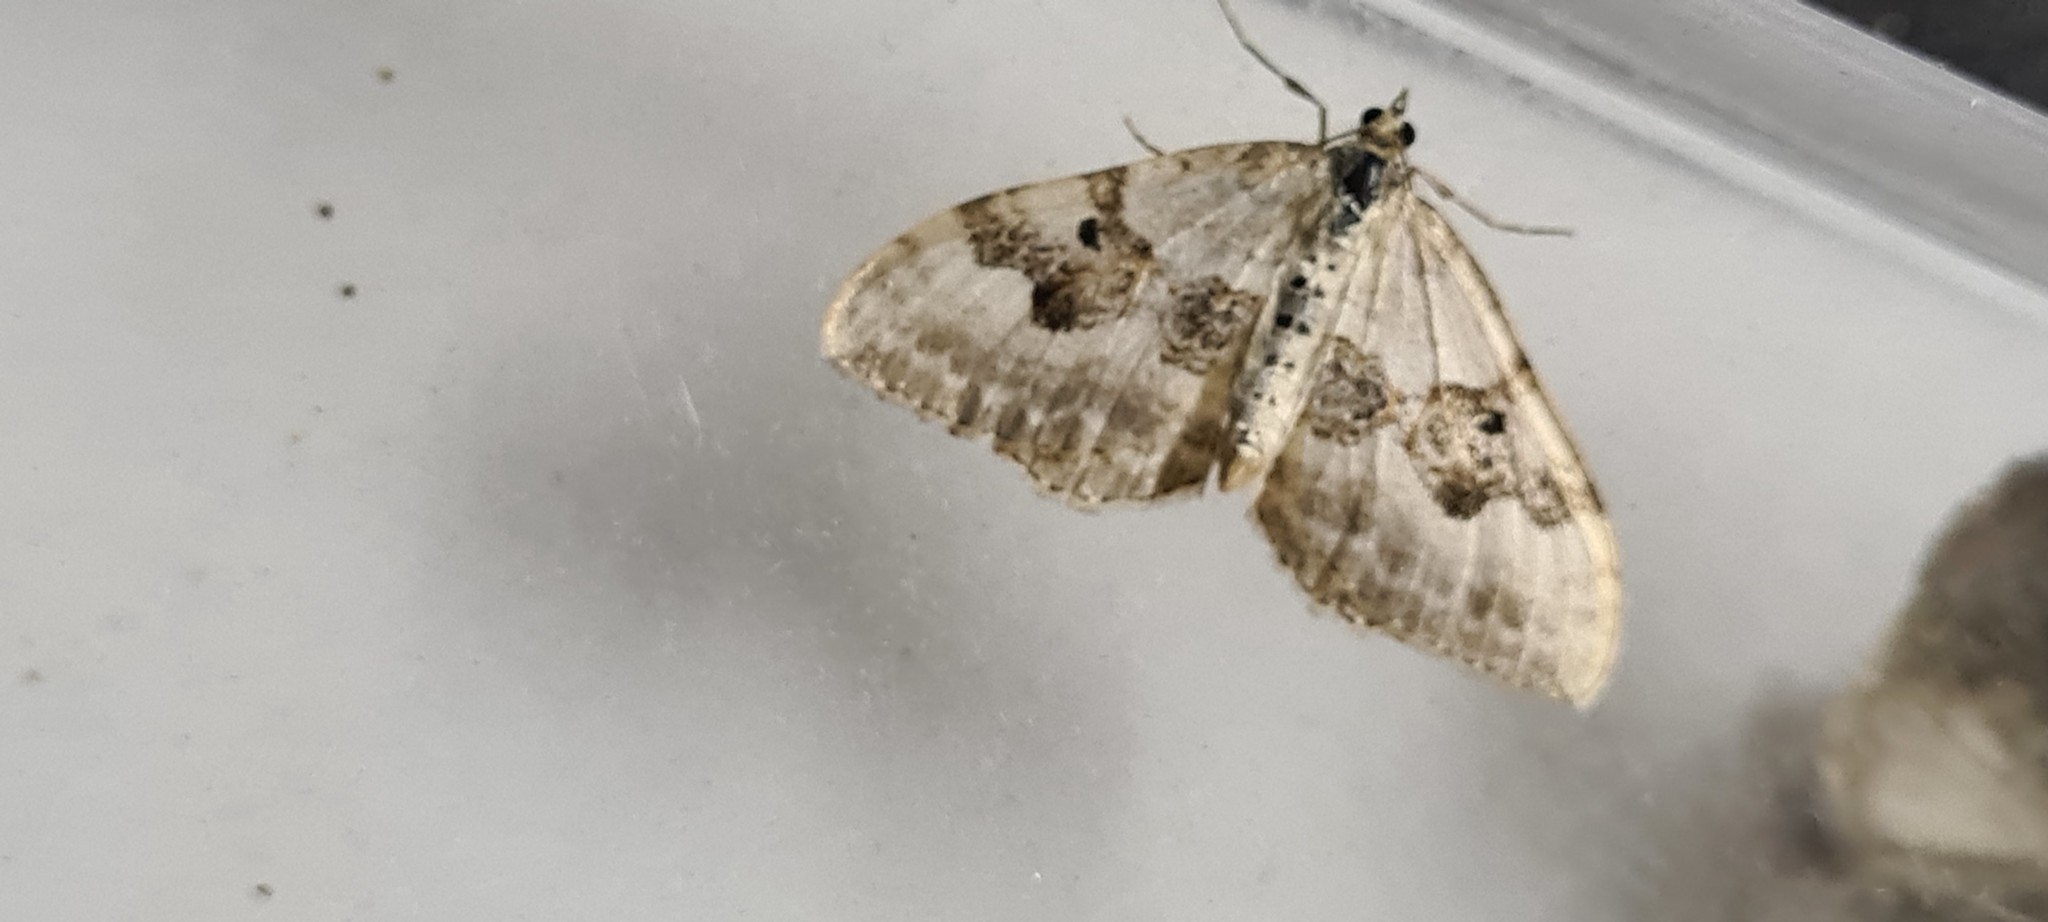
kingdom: Animalia
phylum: Arthropoda
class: Insecta
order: Lepidoptera
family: Geometridae
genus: Xanthorhoe
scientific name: Xanthorhoe montanata
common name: Silver-ground carpet
